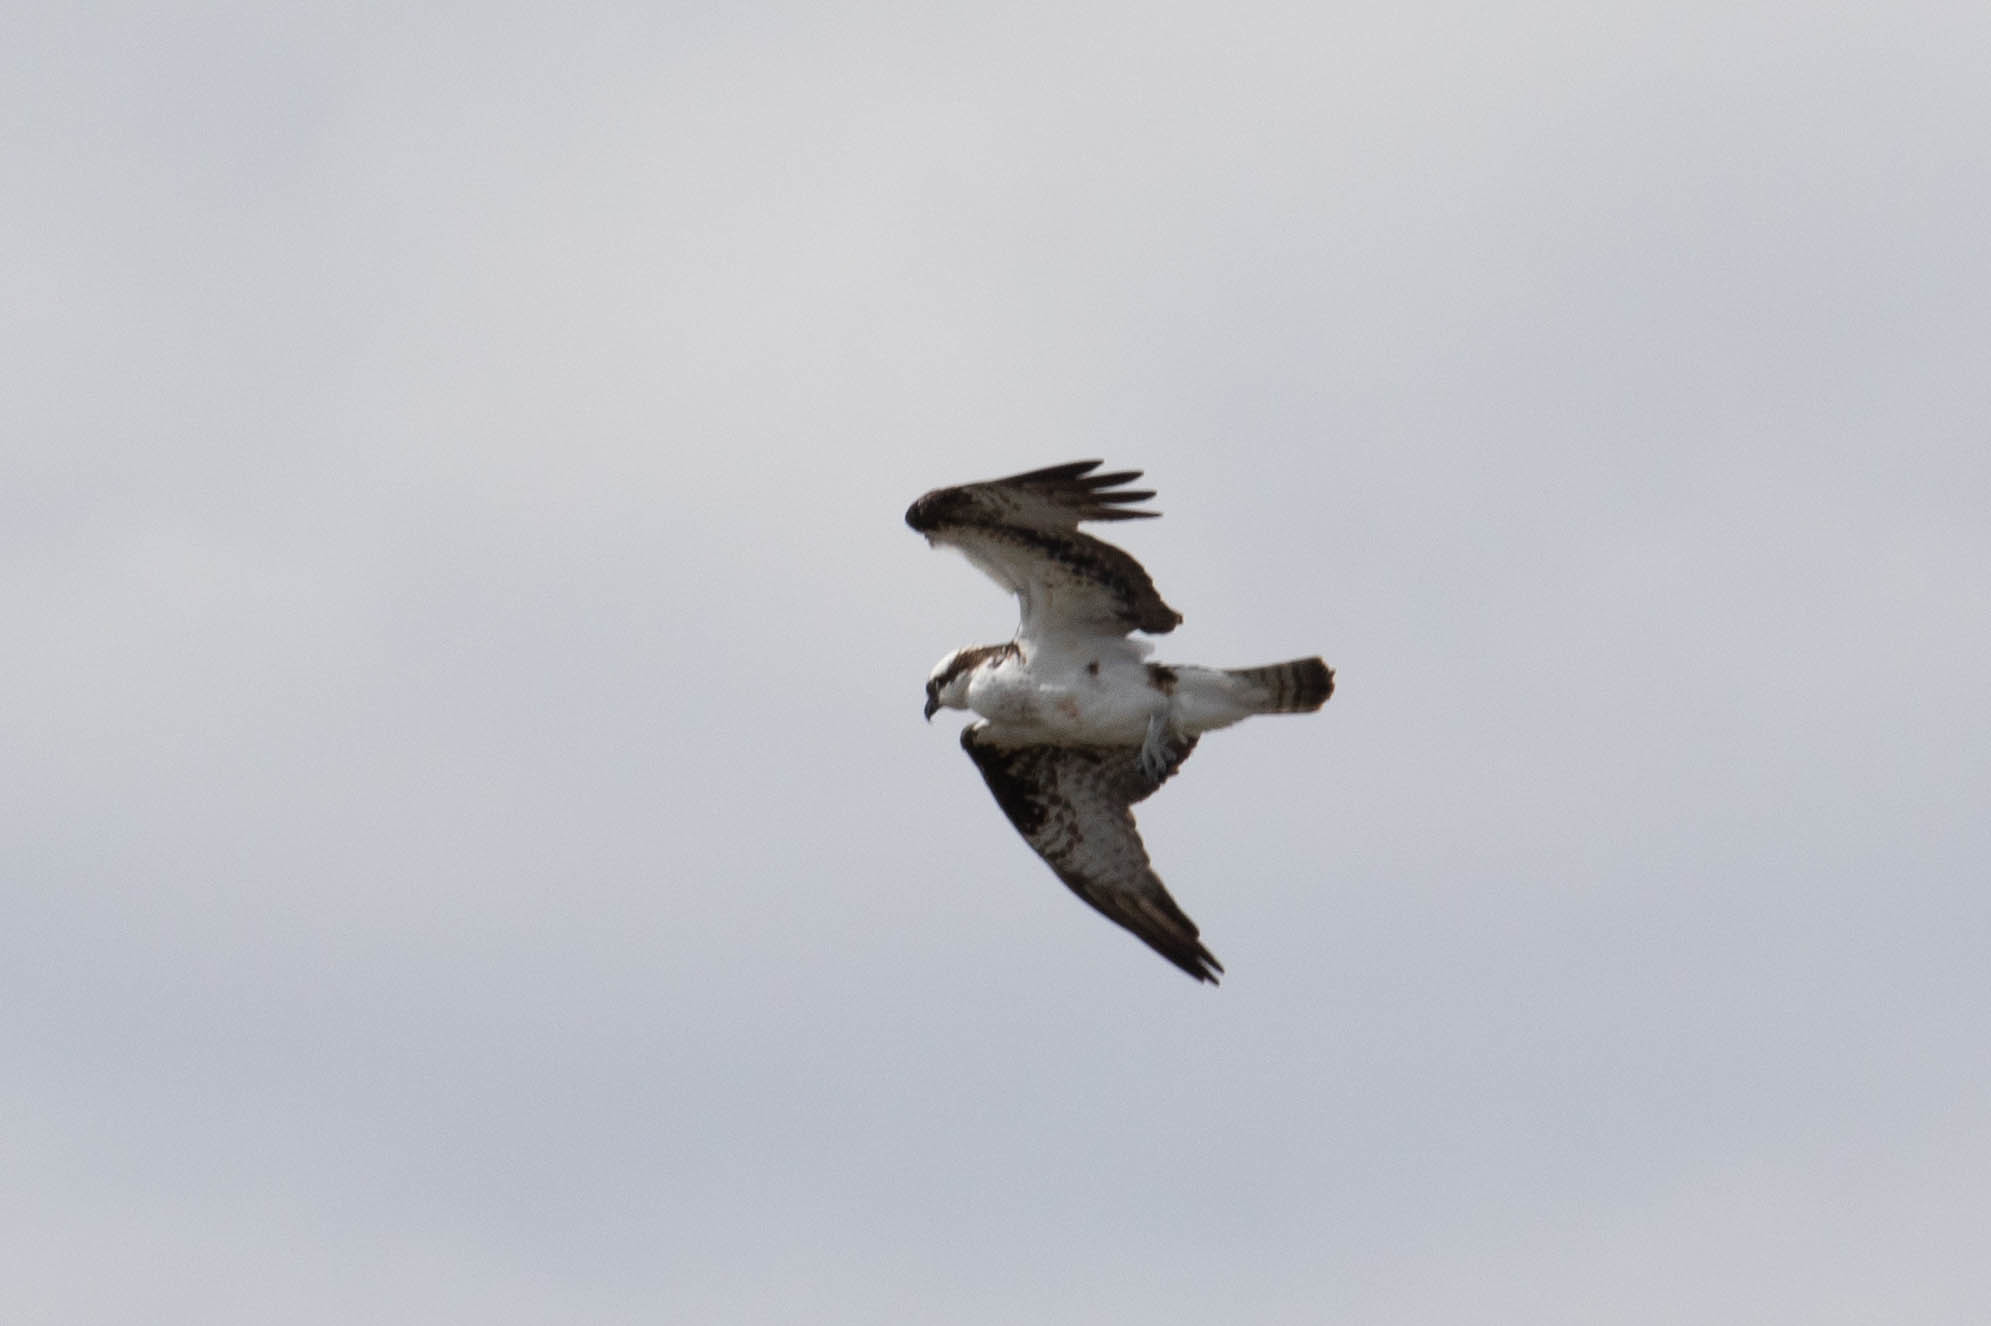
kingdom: Animalia
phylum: Chordata
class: Aves
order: Accipitriformes
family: Pandionidae
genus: Pandion
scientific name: Pandion haliaetus
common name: Osprey
